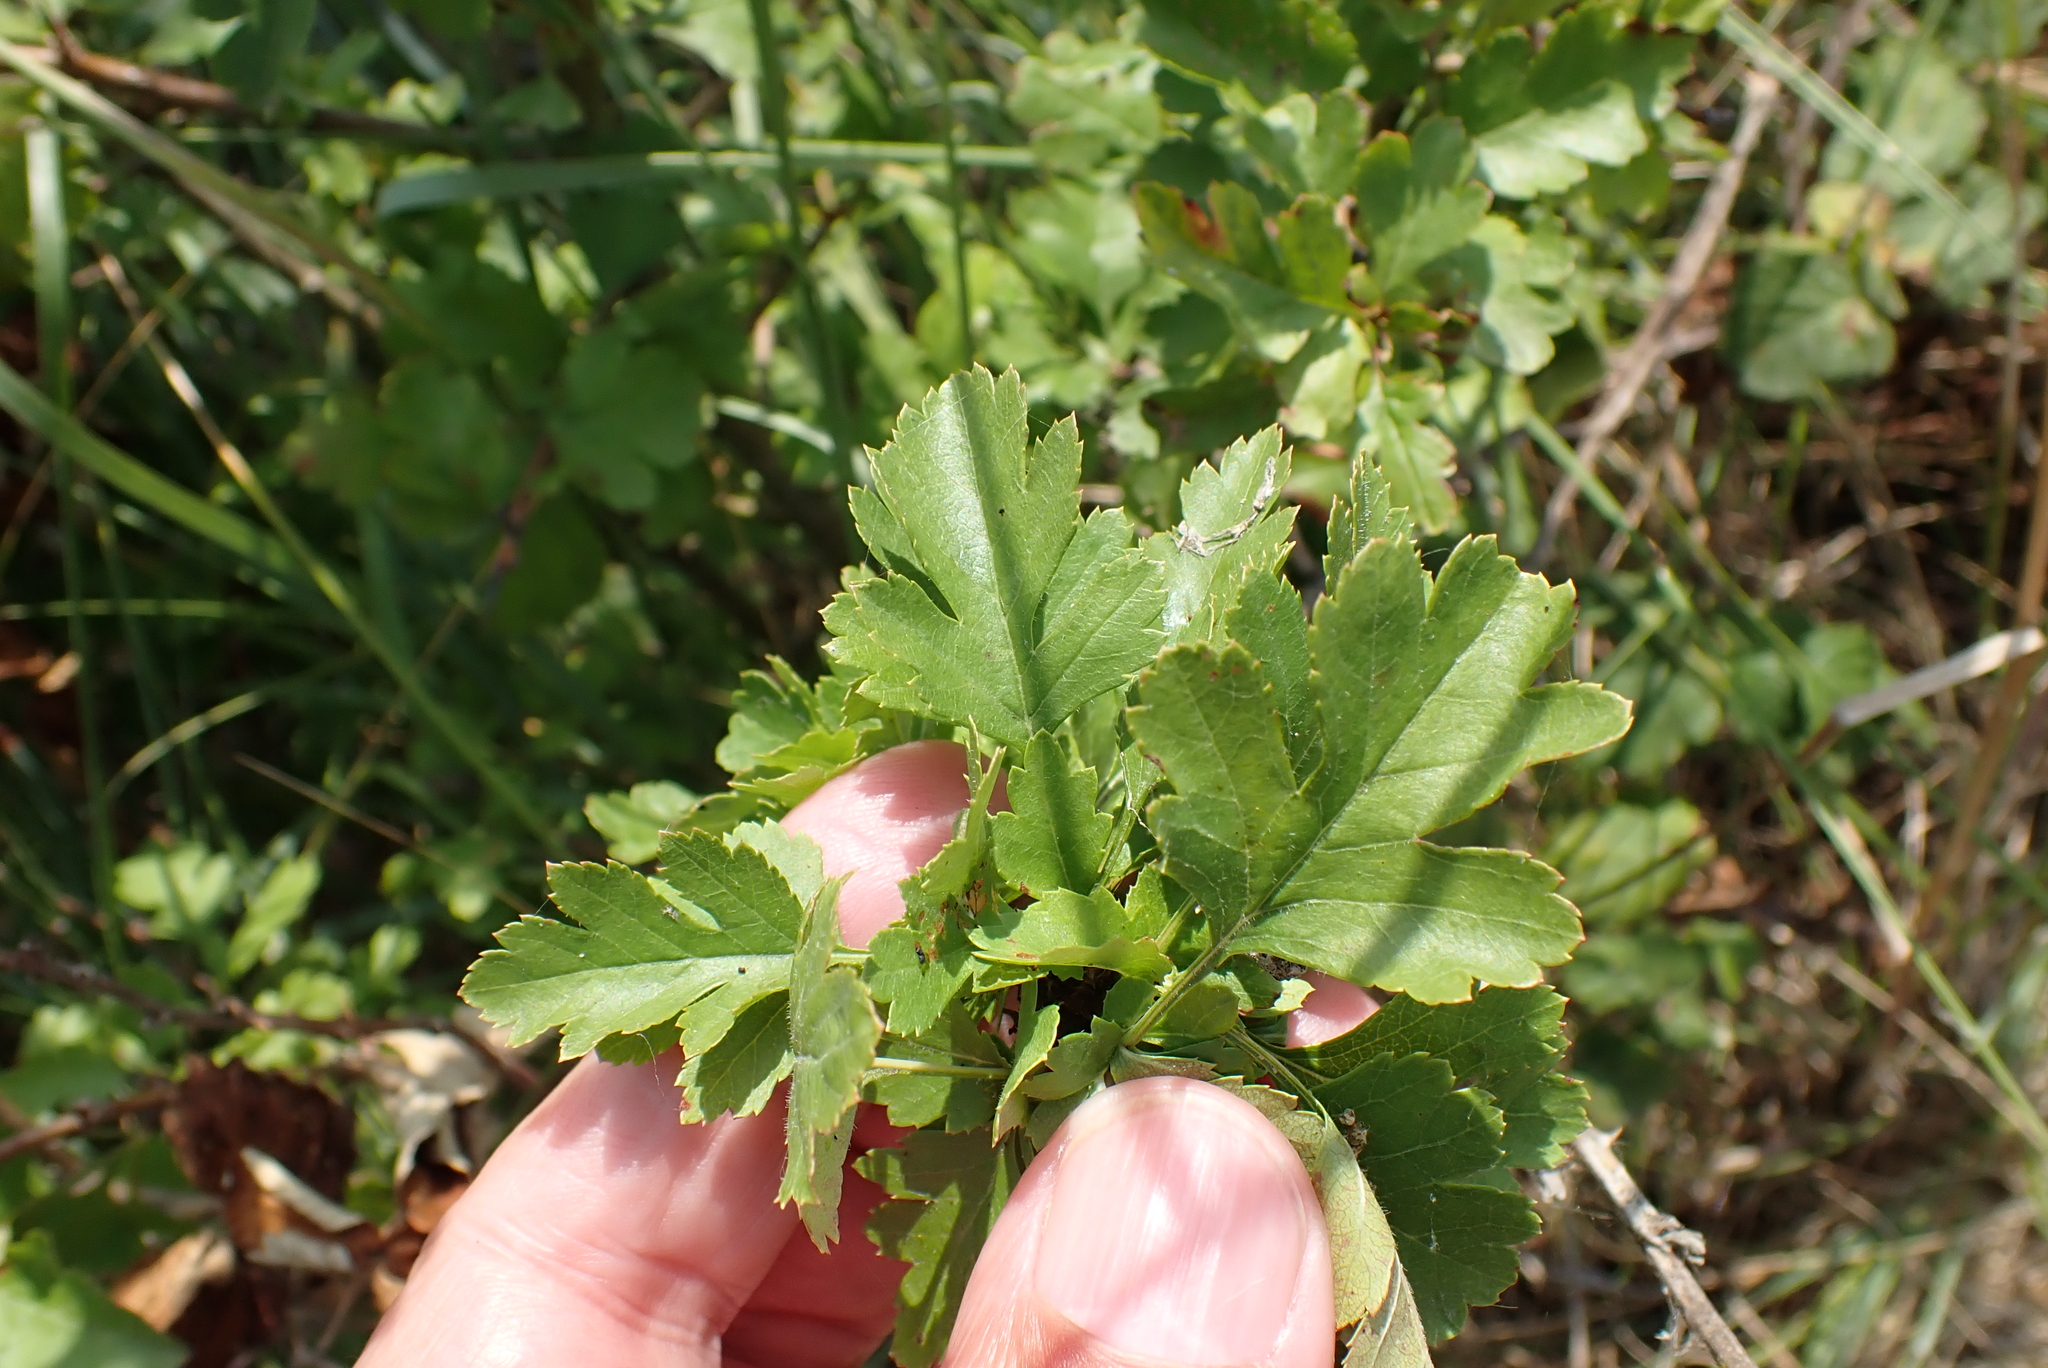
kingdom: Plantae
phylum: Tracheophyta
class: Magnoliopsida
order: Rosales
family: Rosaceae
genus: Crataegus
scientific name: Crataegus monogyna
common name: Hawthorn
